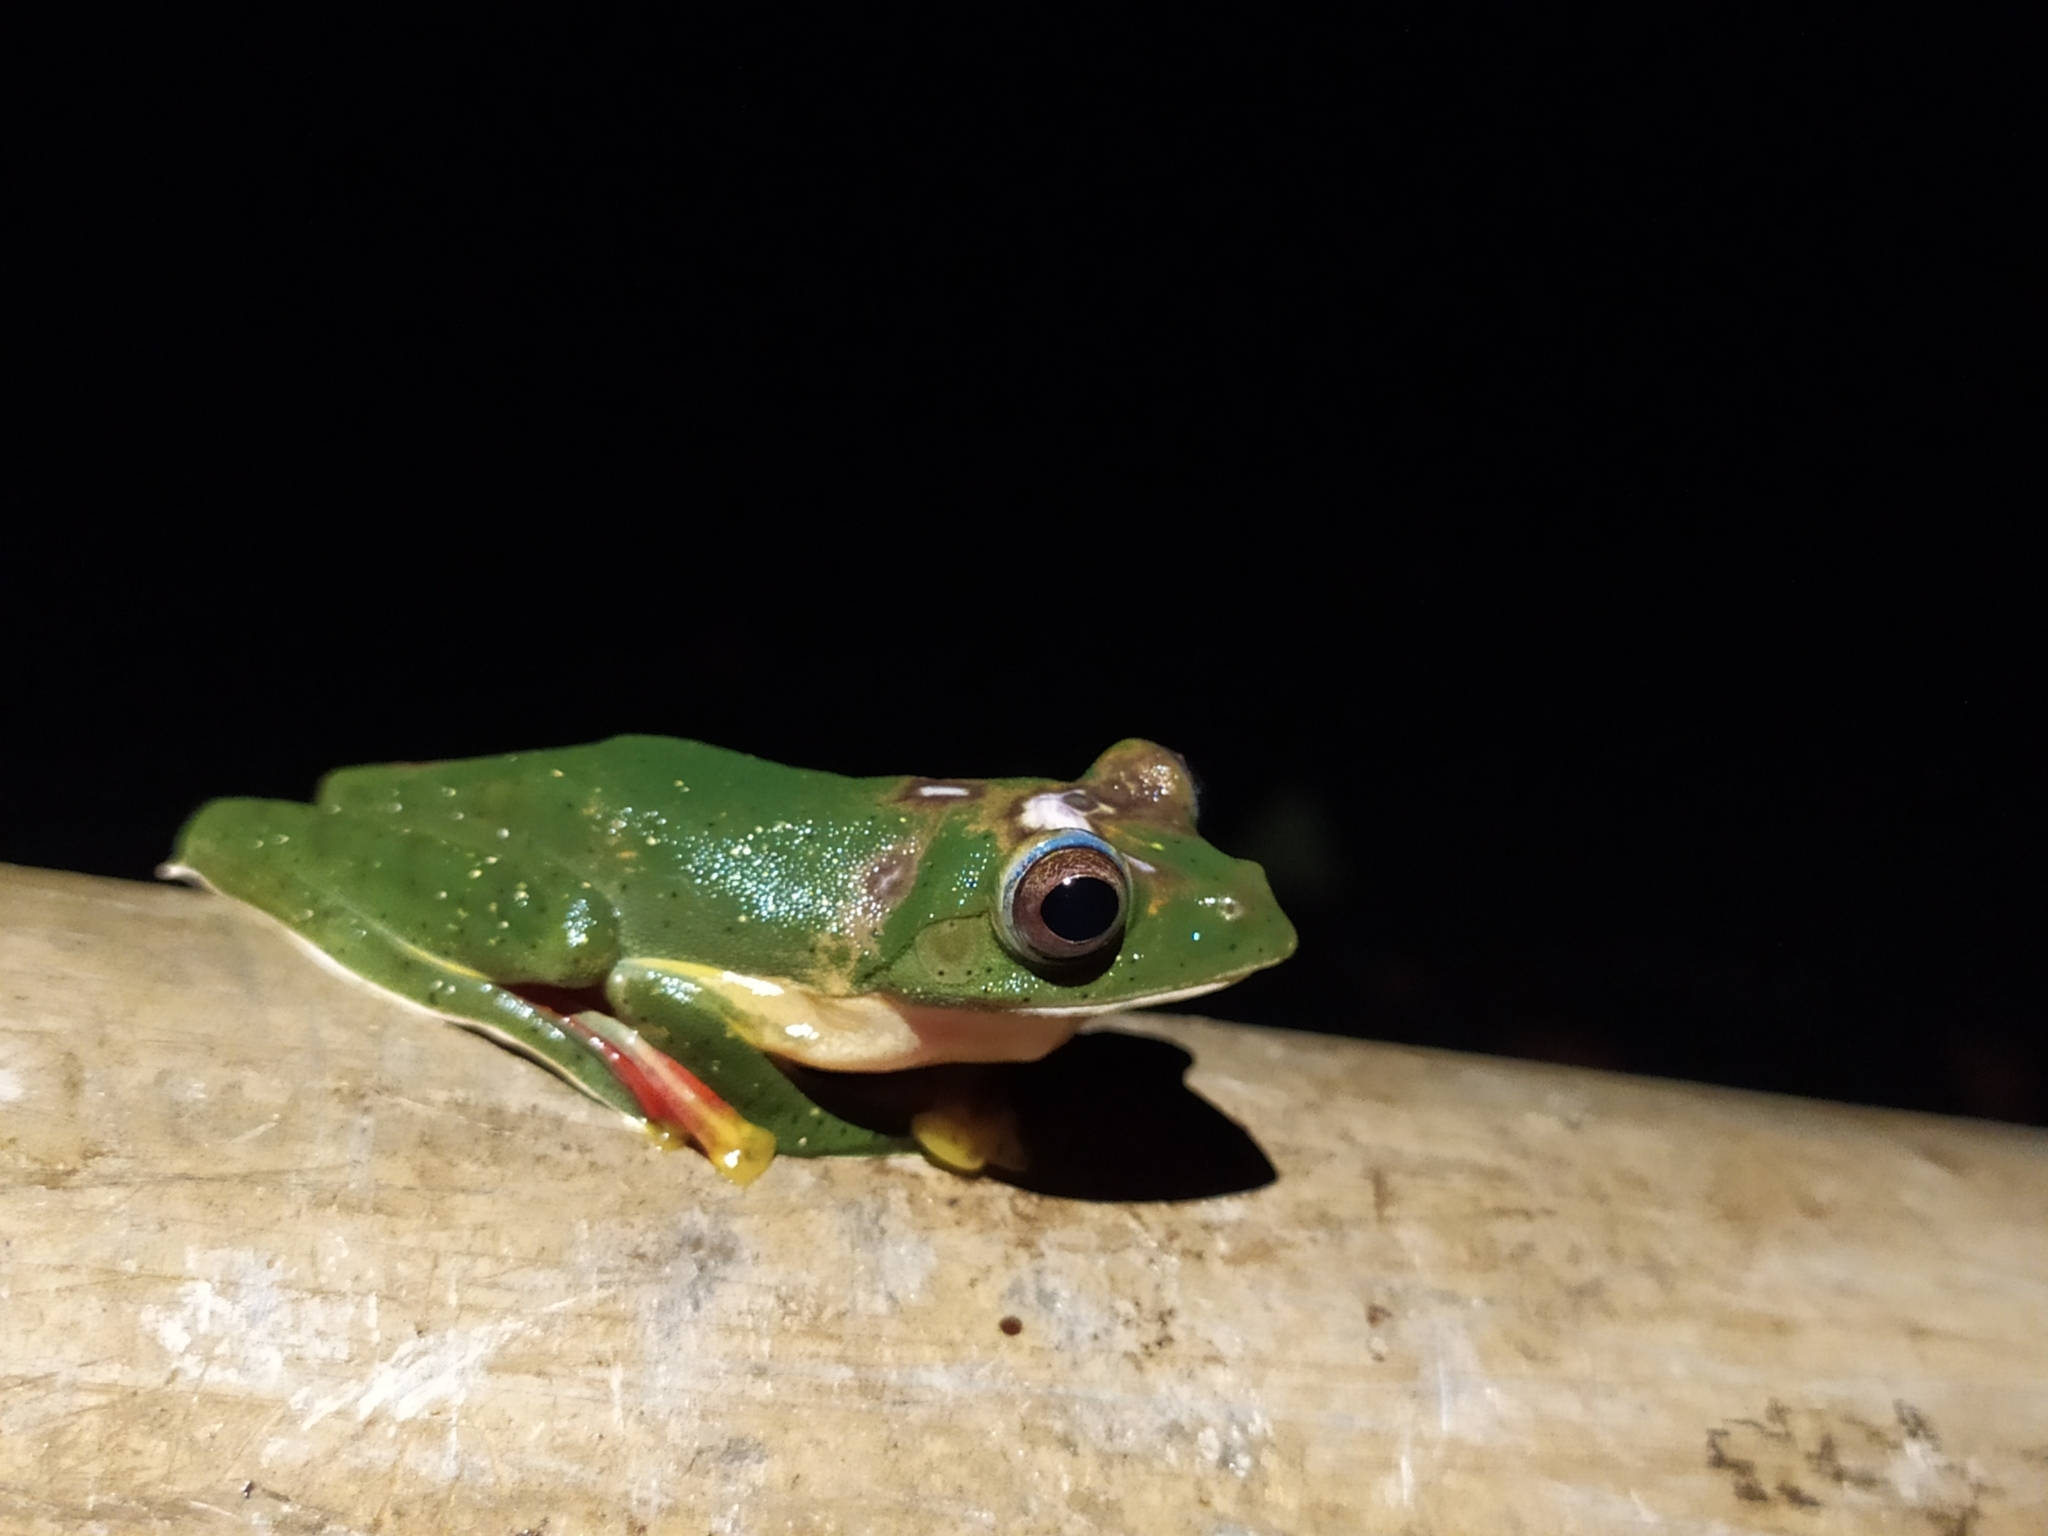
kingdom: Animalia
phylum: Chordata
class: Amphibia
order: Anura
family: Rhacophoridae
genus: Rhacophorus
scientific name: Rhacophorus malabaricus
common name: Malabar gliding frog
